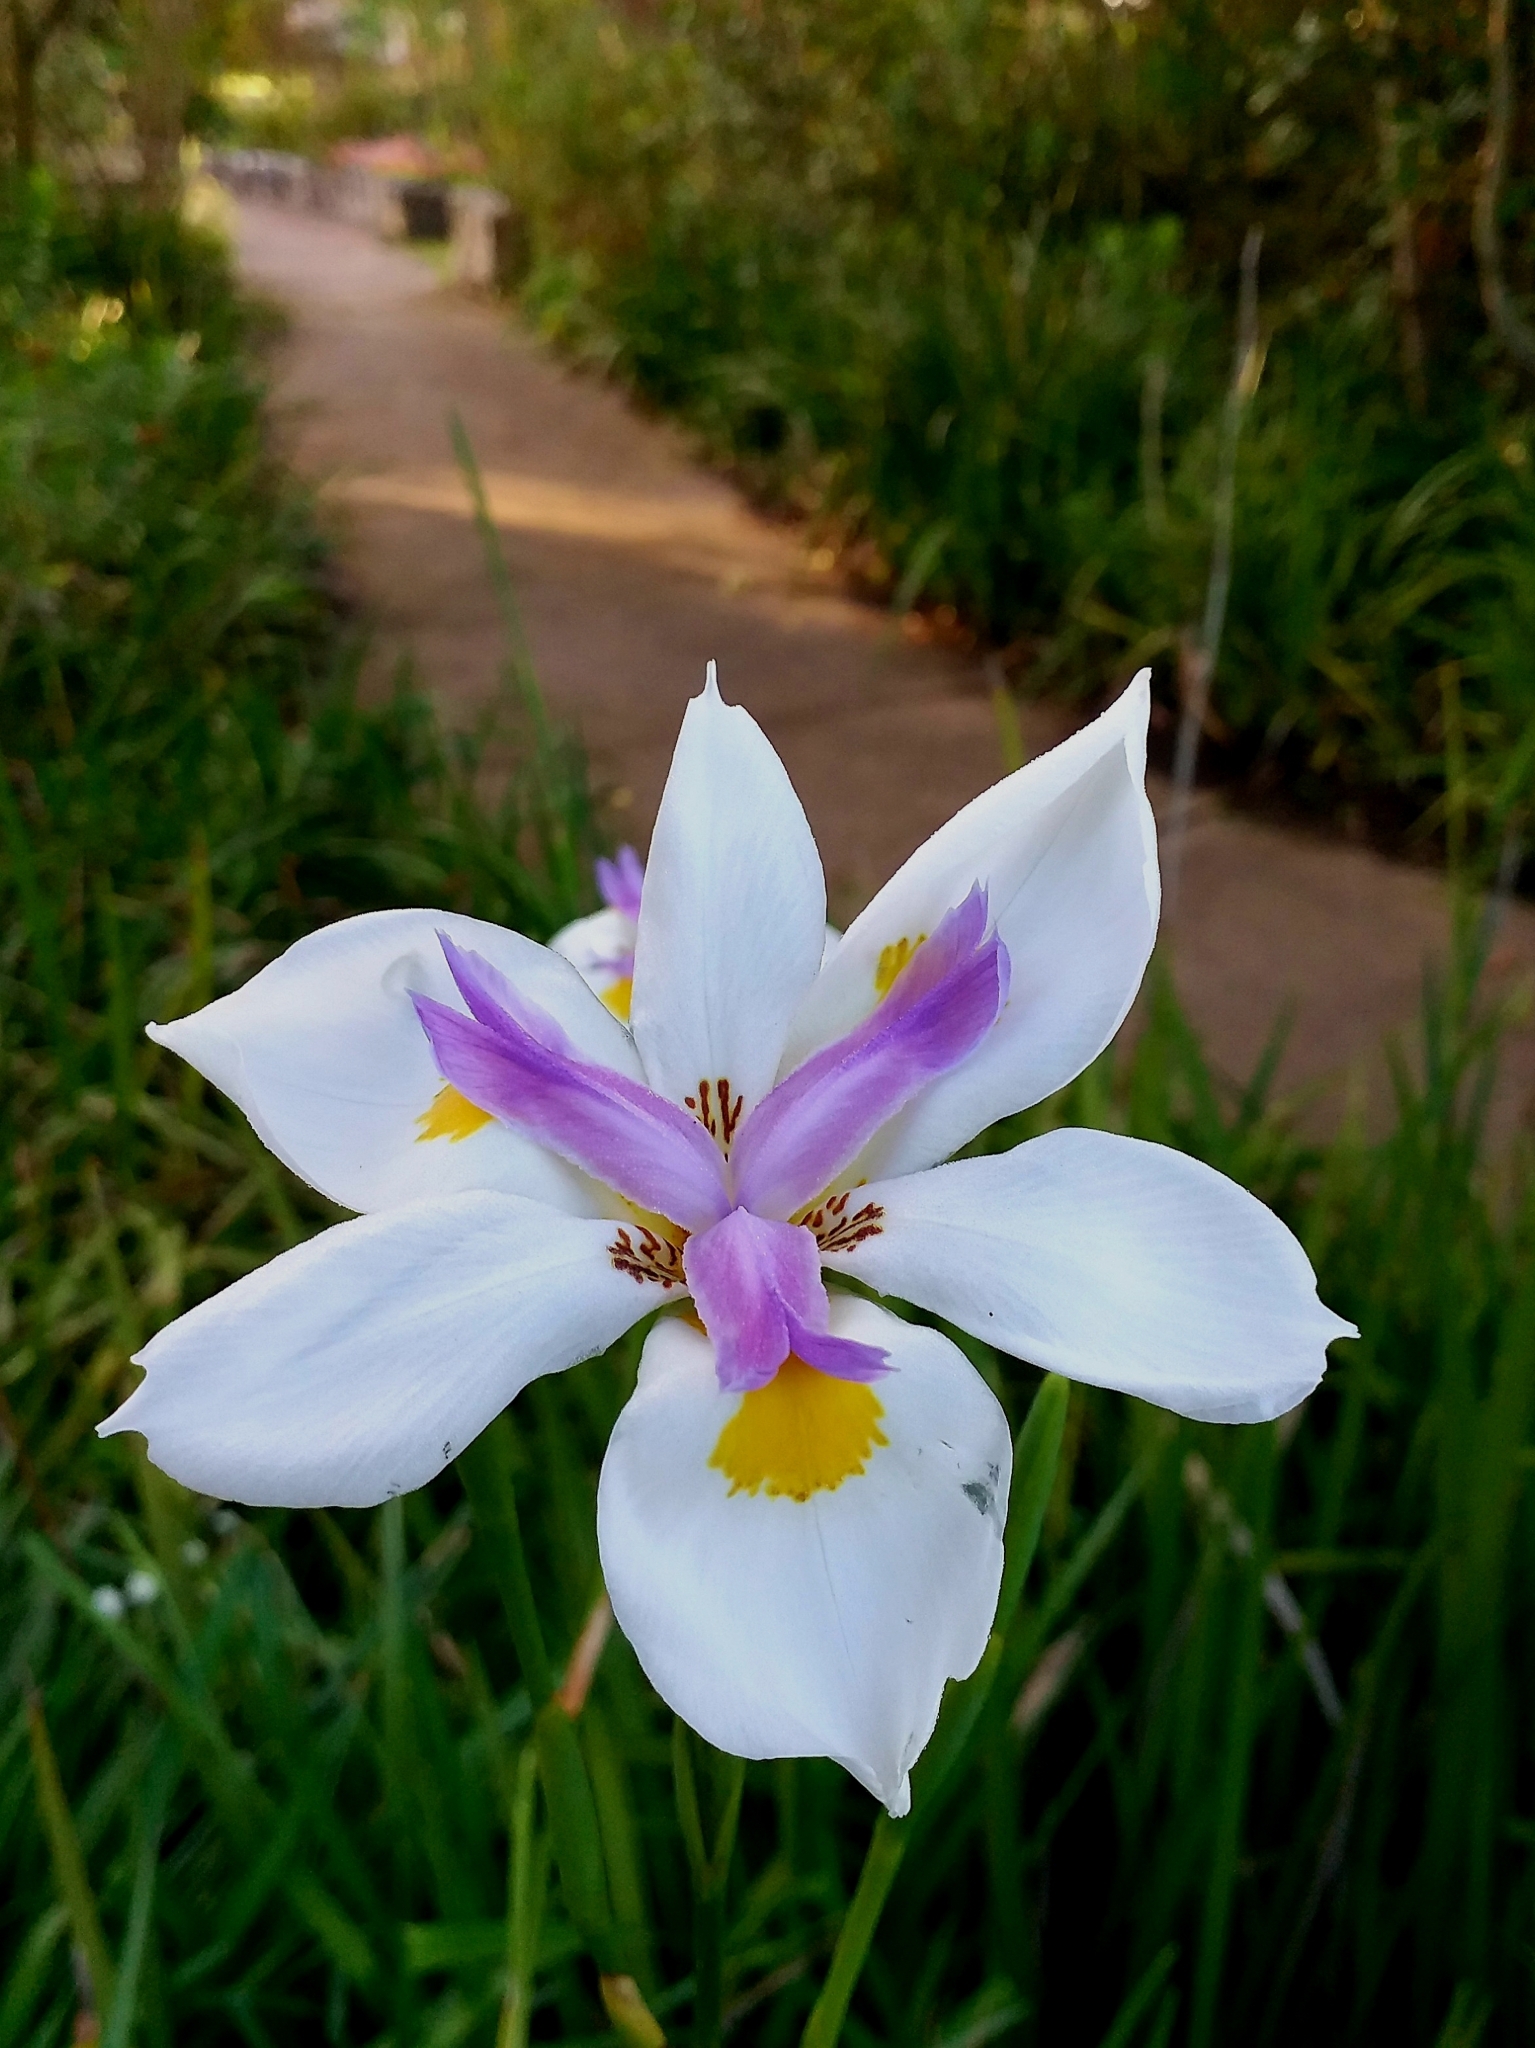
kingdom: Plantae
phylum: Tracheophyta
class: Liliopsida
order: Asparagales
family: Iridaceae
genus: Dietes
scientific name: Dietes grandiflora
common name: Wild iris
